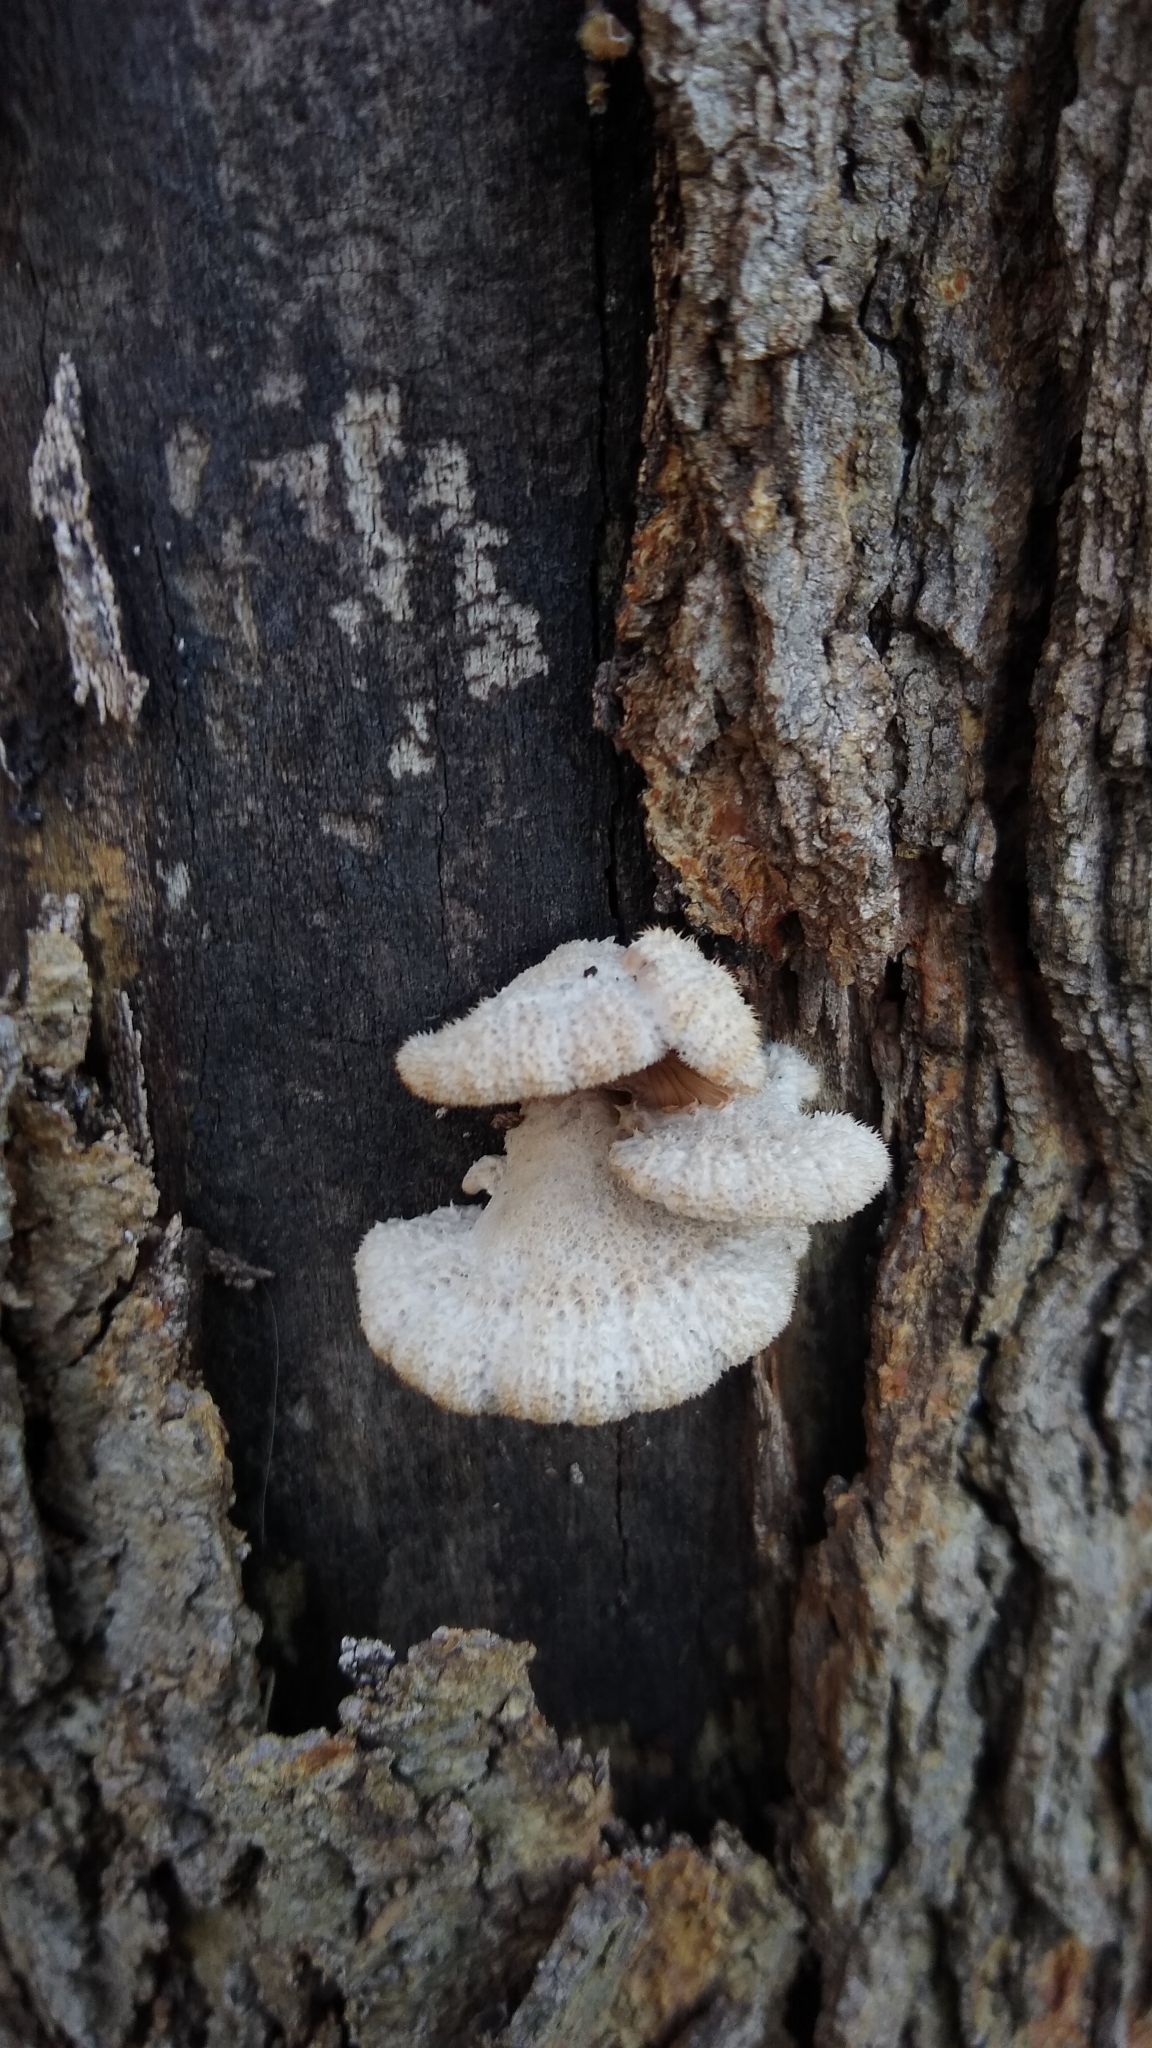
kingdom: Fungi
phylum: Basidiomycota
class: Agaricomycetes
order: Agaricales
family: Schizophyllaceae
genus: Schizophyllum
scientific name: Schizophyllum commune
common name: Common porecrust
